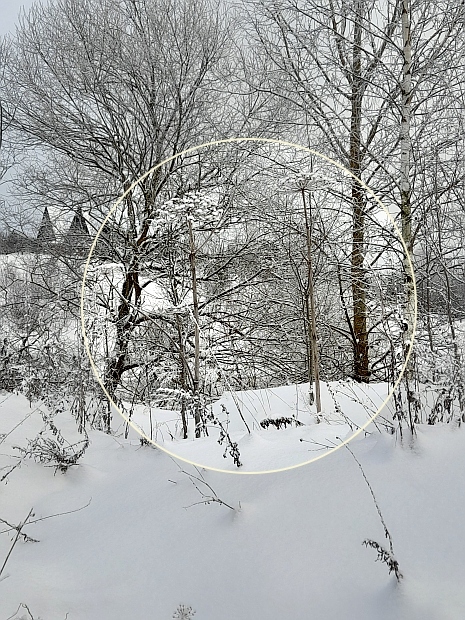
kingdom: Plantae
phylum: Tracheophyta
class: Magnoliopsida
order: Apiales
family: Apiaceae
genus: Heracleum
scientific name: Heracleum sosnowskyi
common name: Sosnowsky's hogweed
